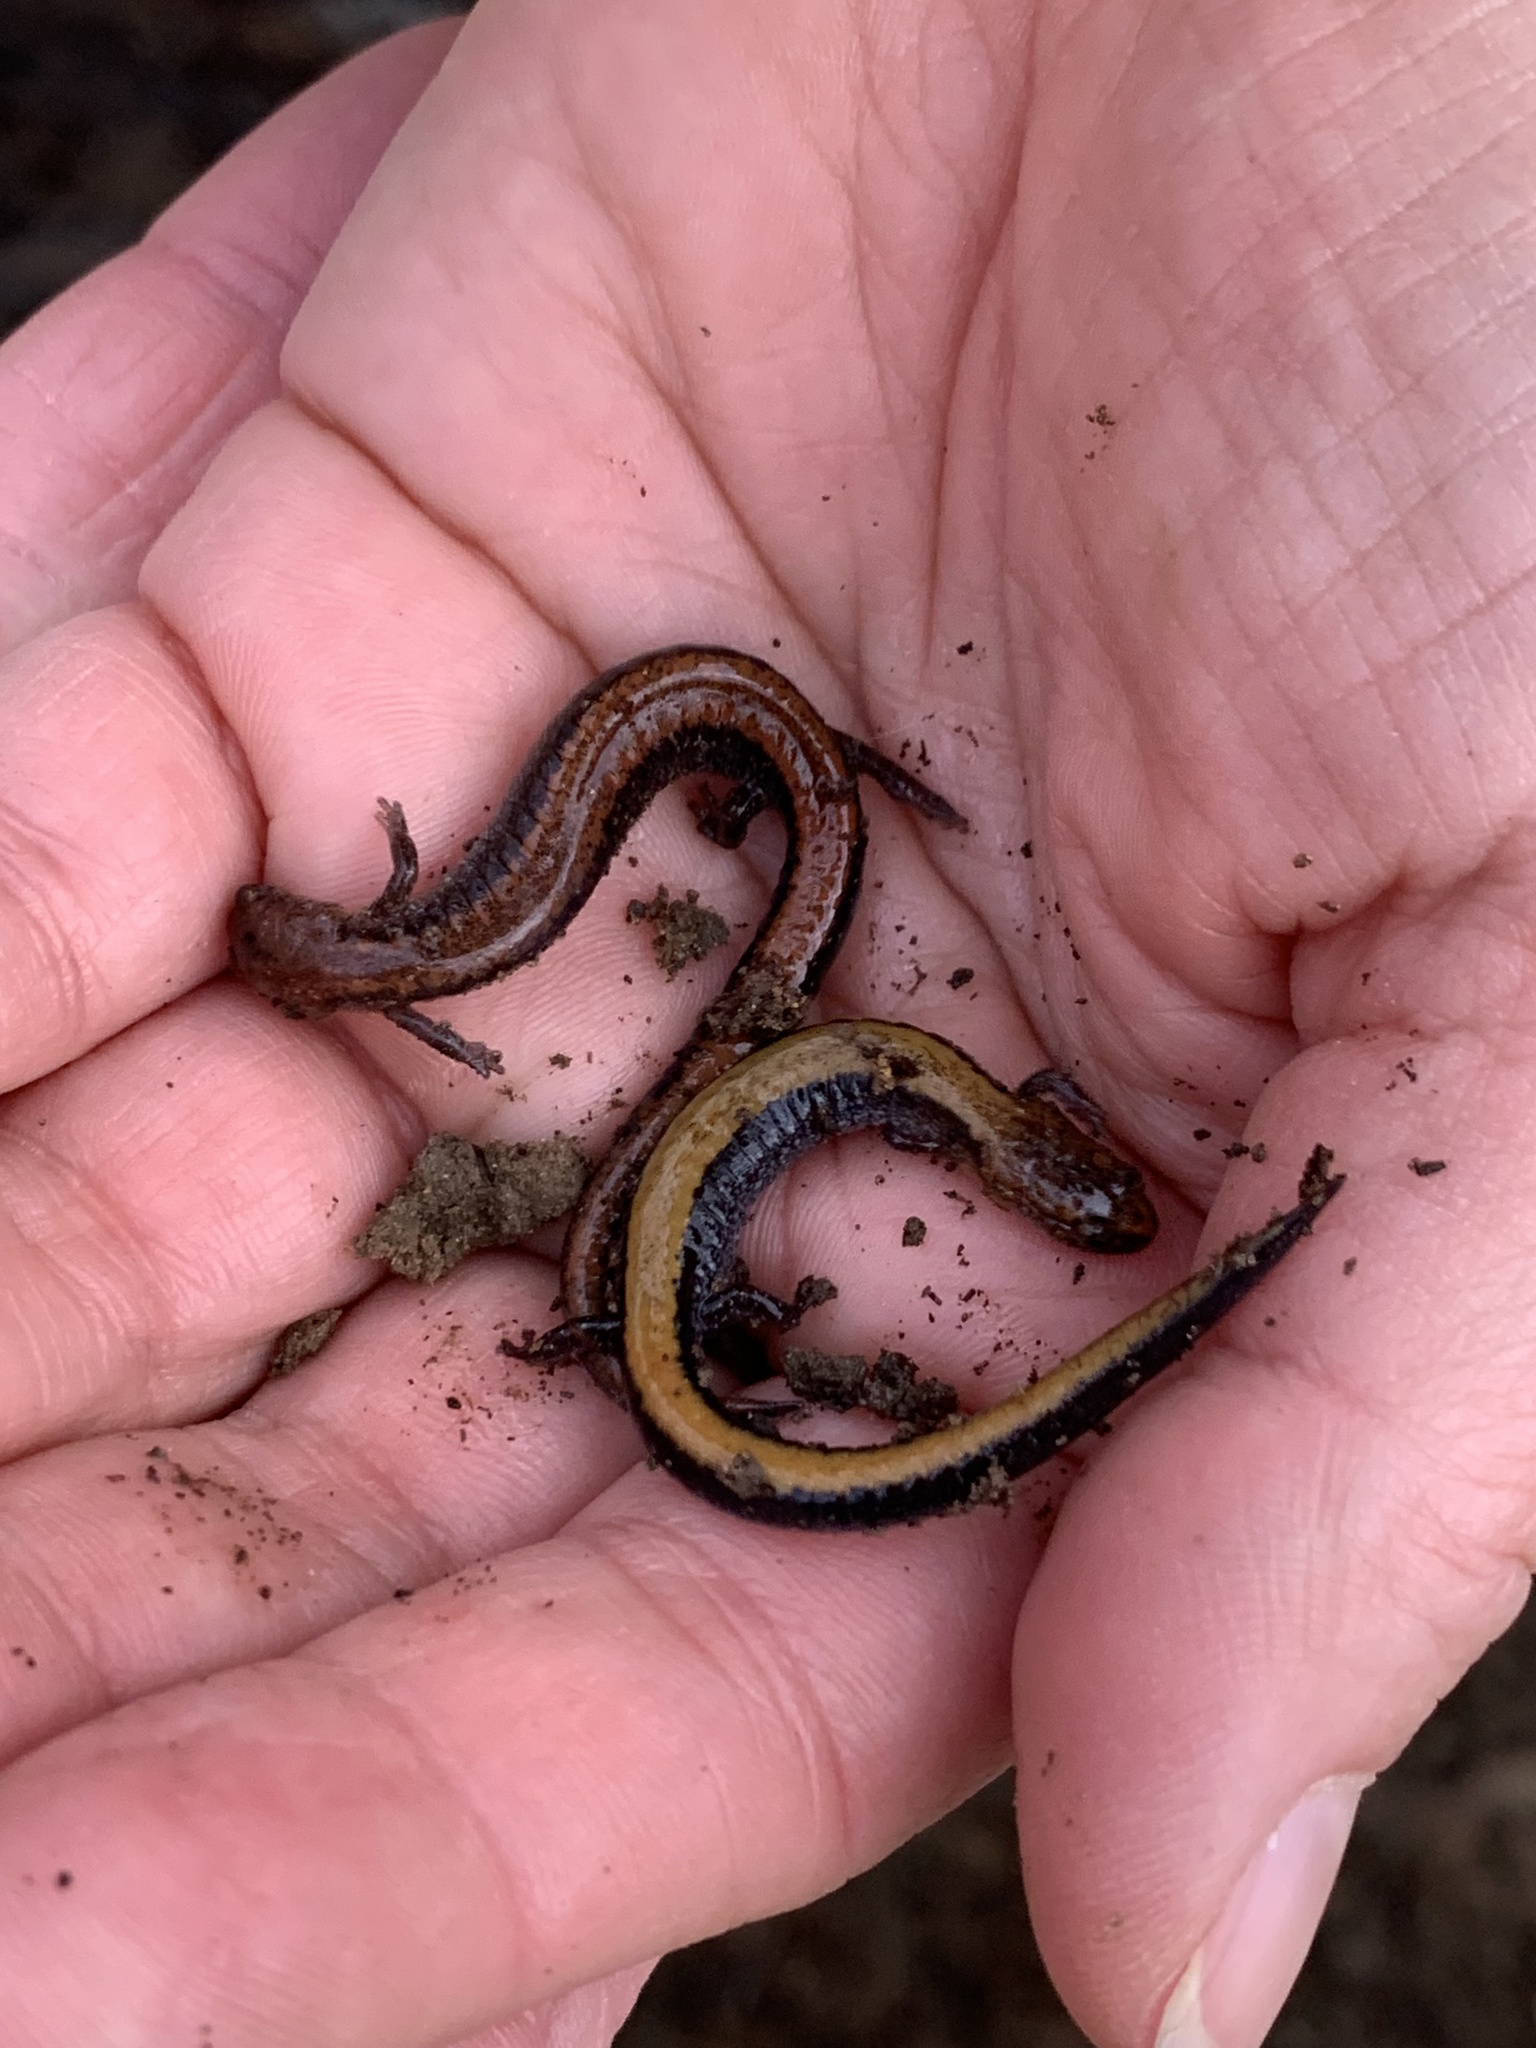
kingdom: Animalia
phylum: Chordata
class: Amphibia
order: Caudata
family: Plethodontidae
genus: Plethodon
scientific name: Plethodon cinereus
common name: Redback salamander
